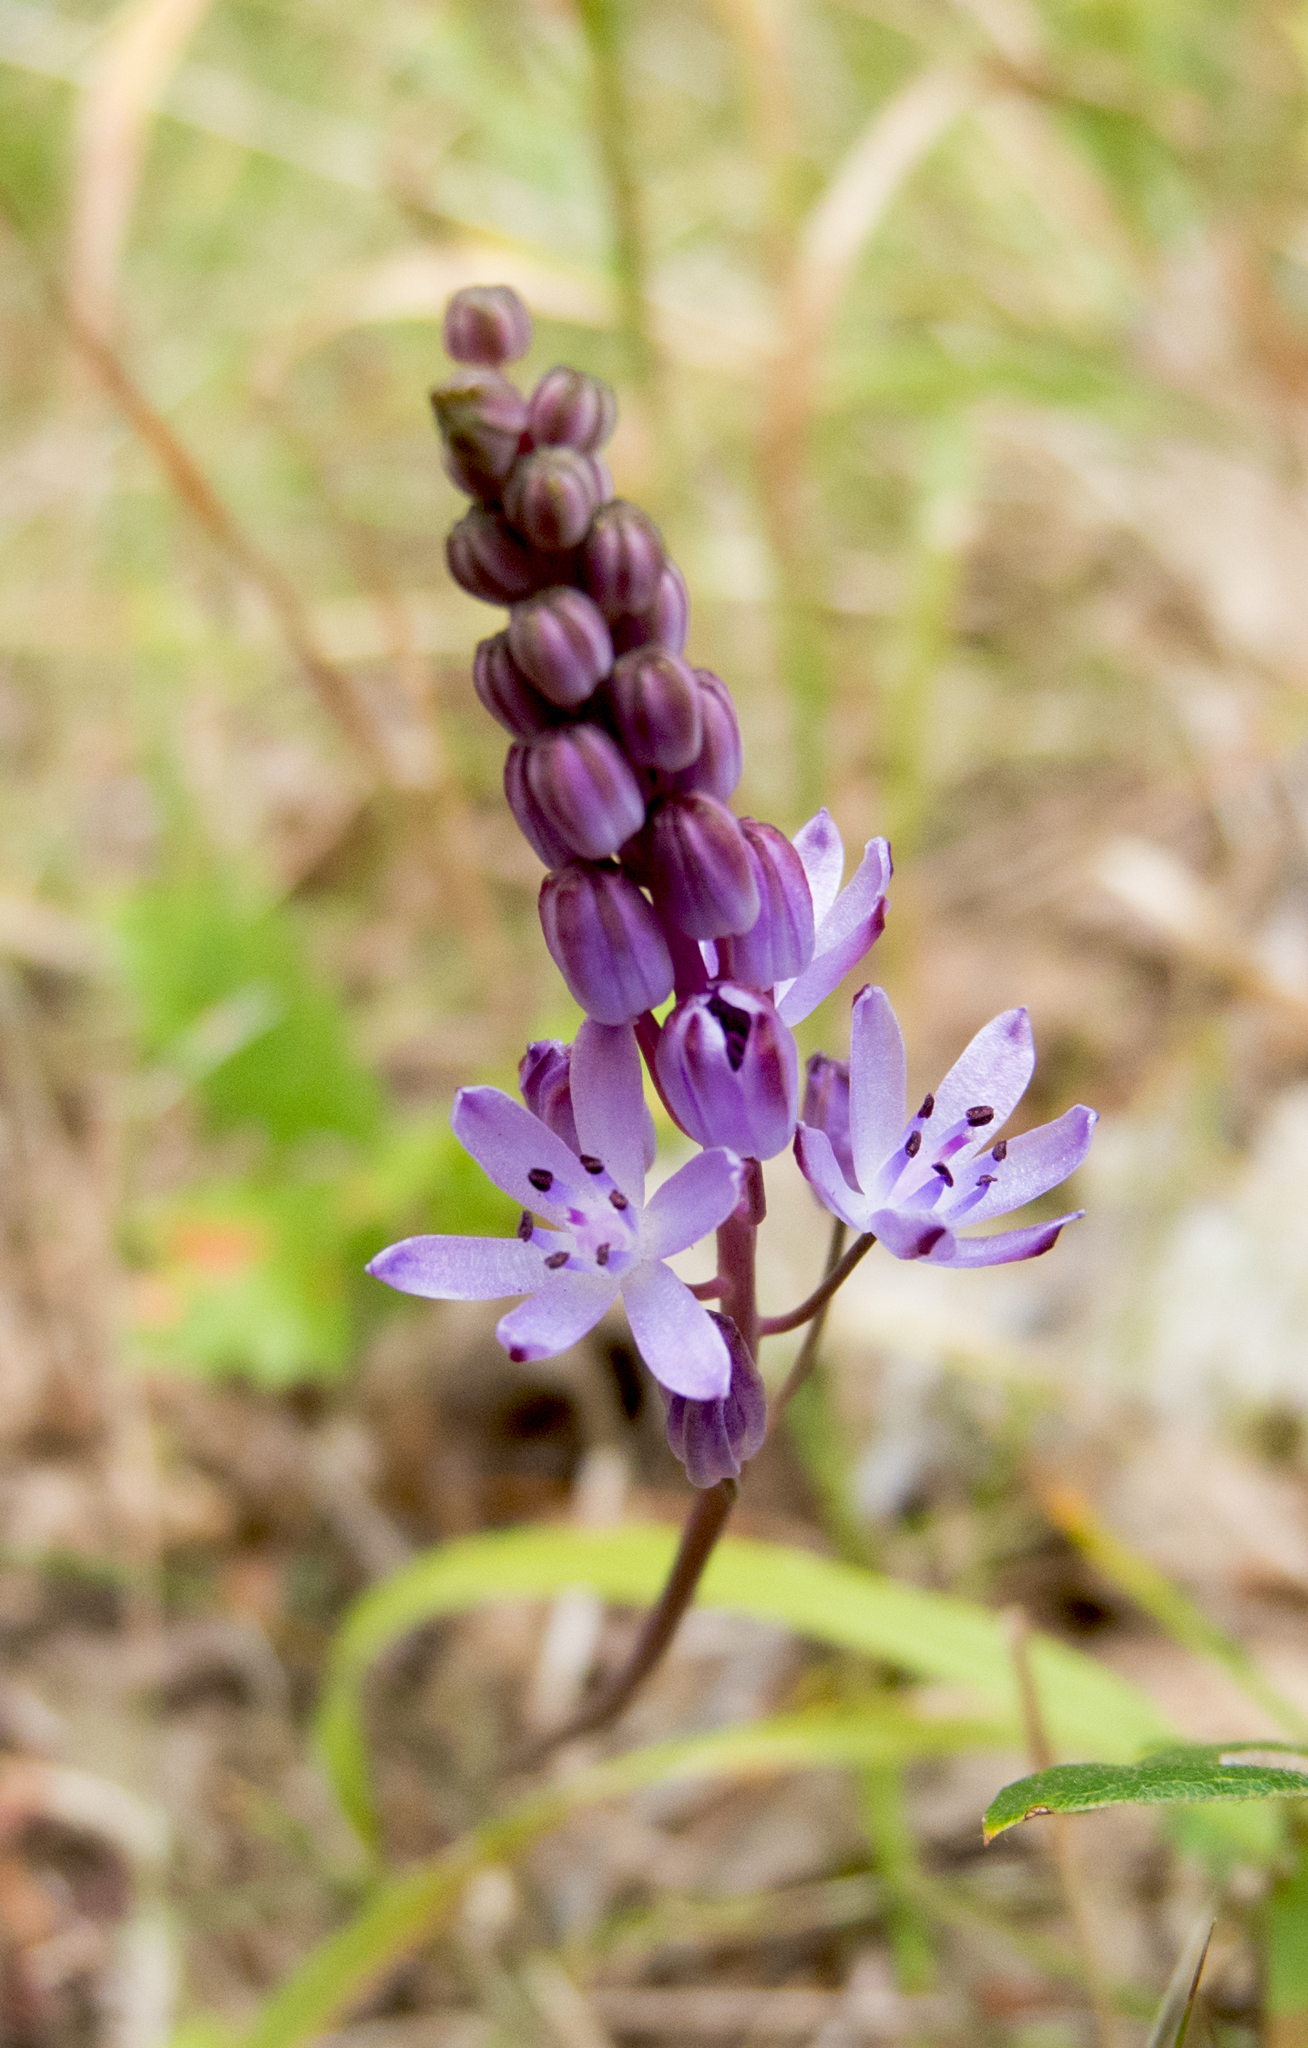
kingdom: Plantae
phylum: Tracheophyta
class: Liliopsida
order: Asparagales
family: Asparagaceae
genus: Prospero
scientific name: Prospero autumnale
